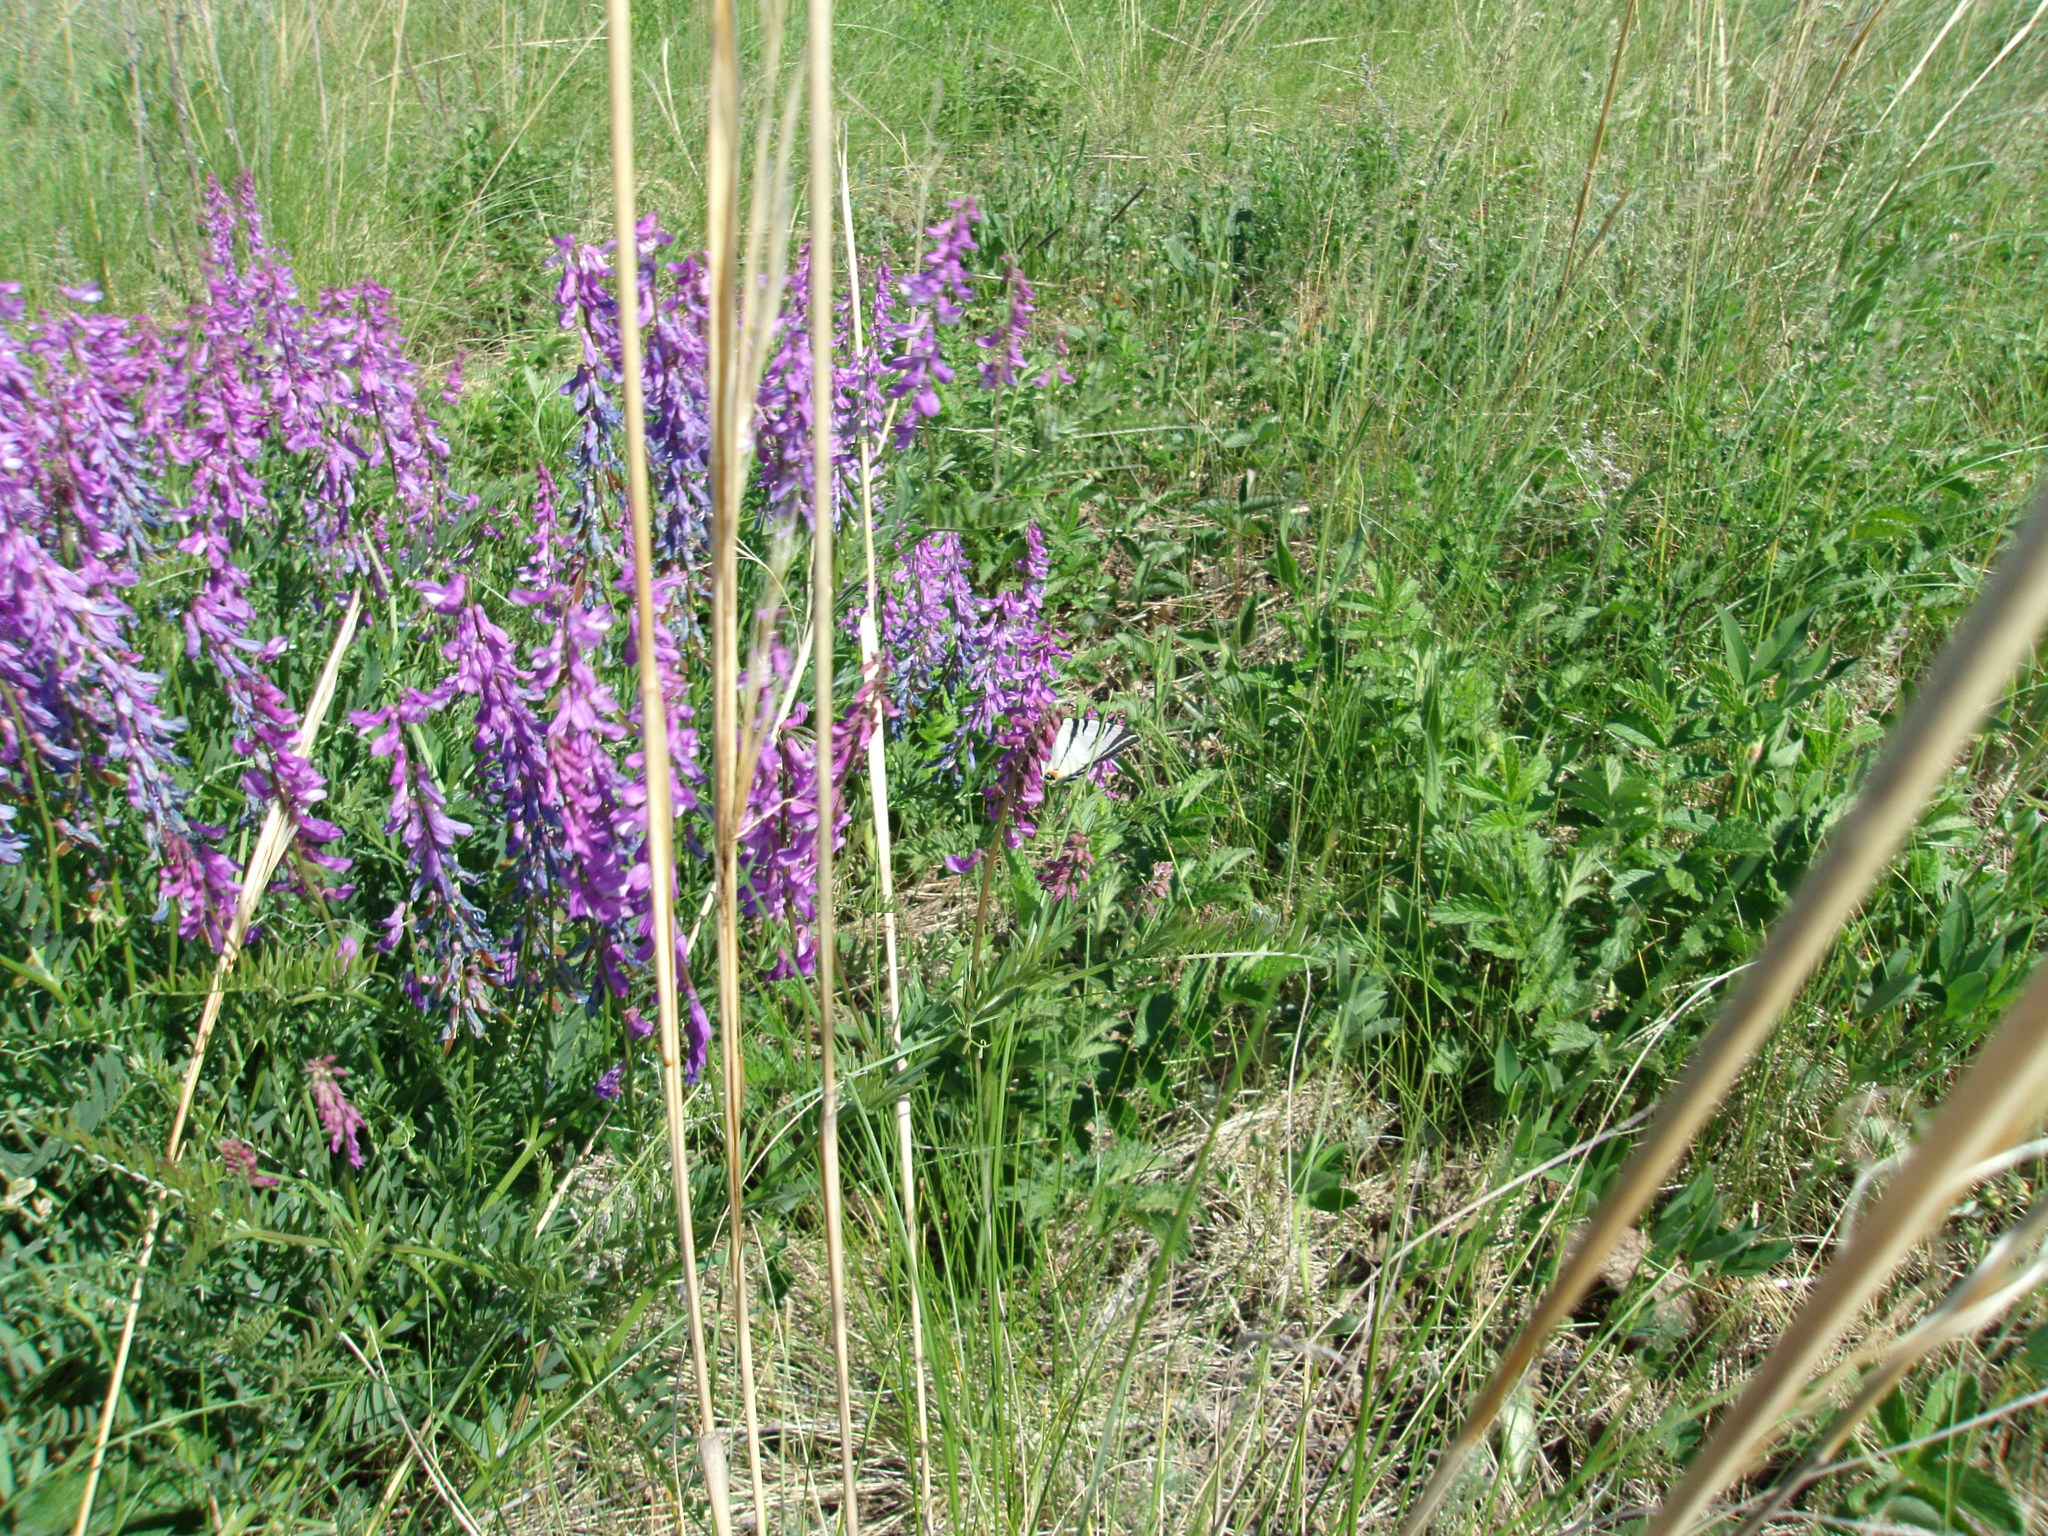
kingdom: Animalia
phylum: Arthropoda
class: Insecta
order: Lepidoptera
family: Papilionidae
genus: Iphiclides
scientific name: Iphiclides podalirius
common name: Scarce swallowtail
